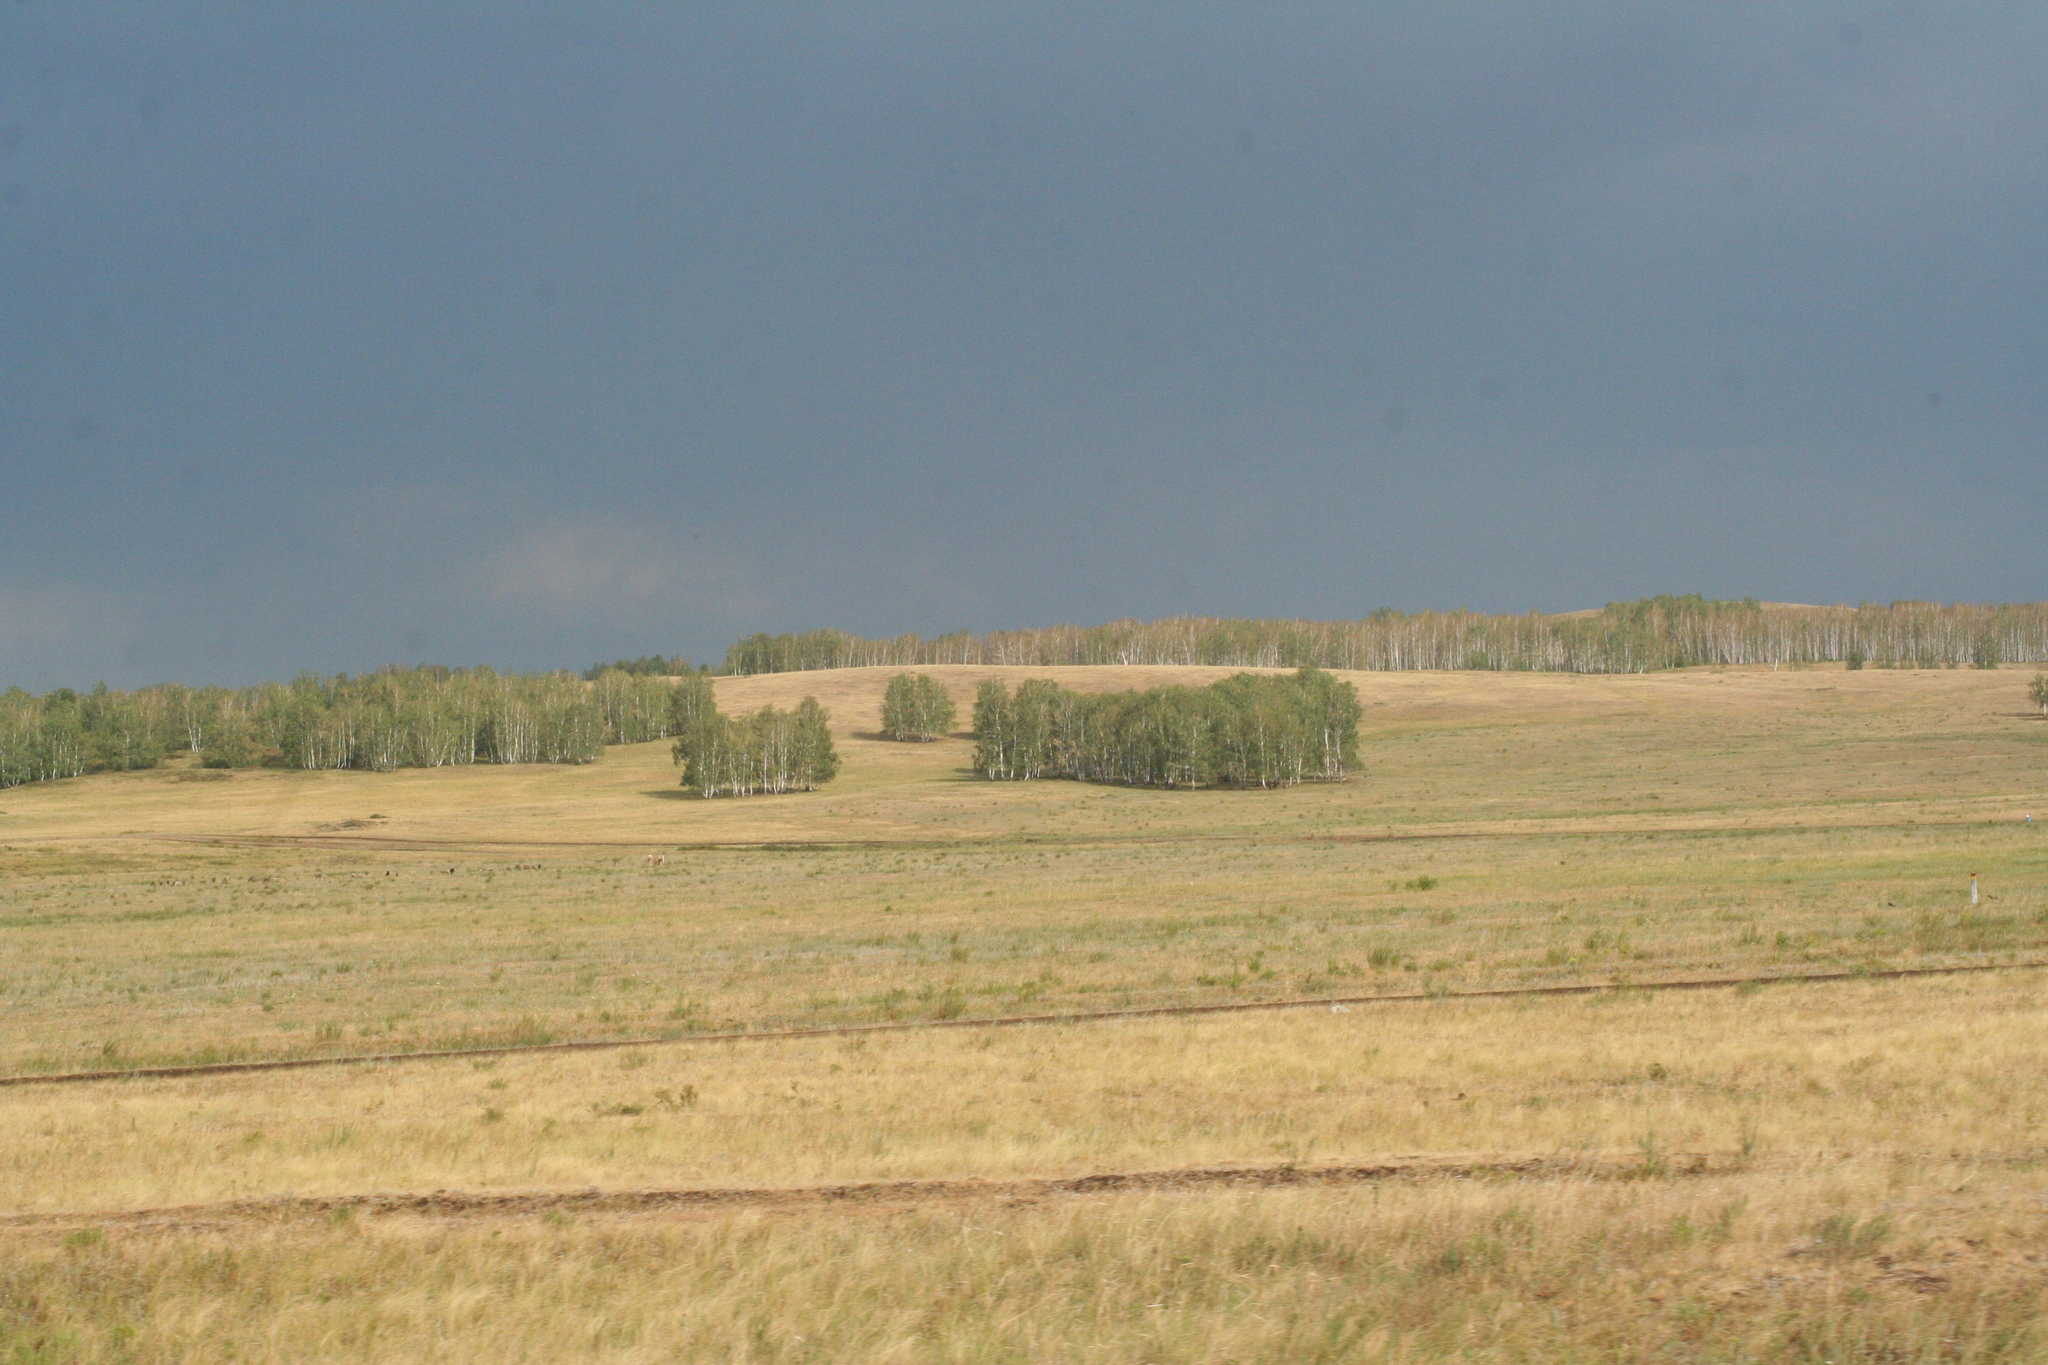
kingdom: Plantae
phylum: Tracheophyta
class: Magnoliopsida
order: Fagales
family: Betulaceae
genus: Betula
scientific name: Betula pendula
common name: Silver birch
